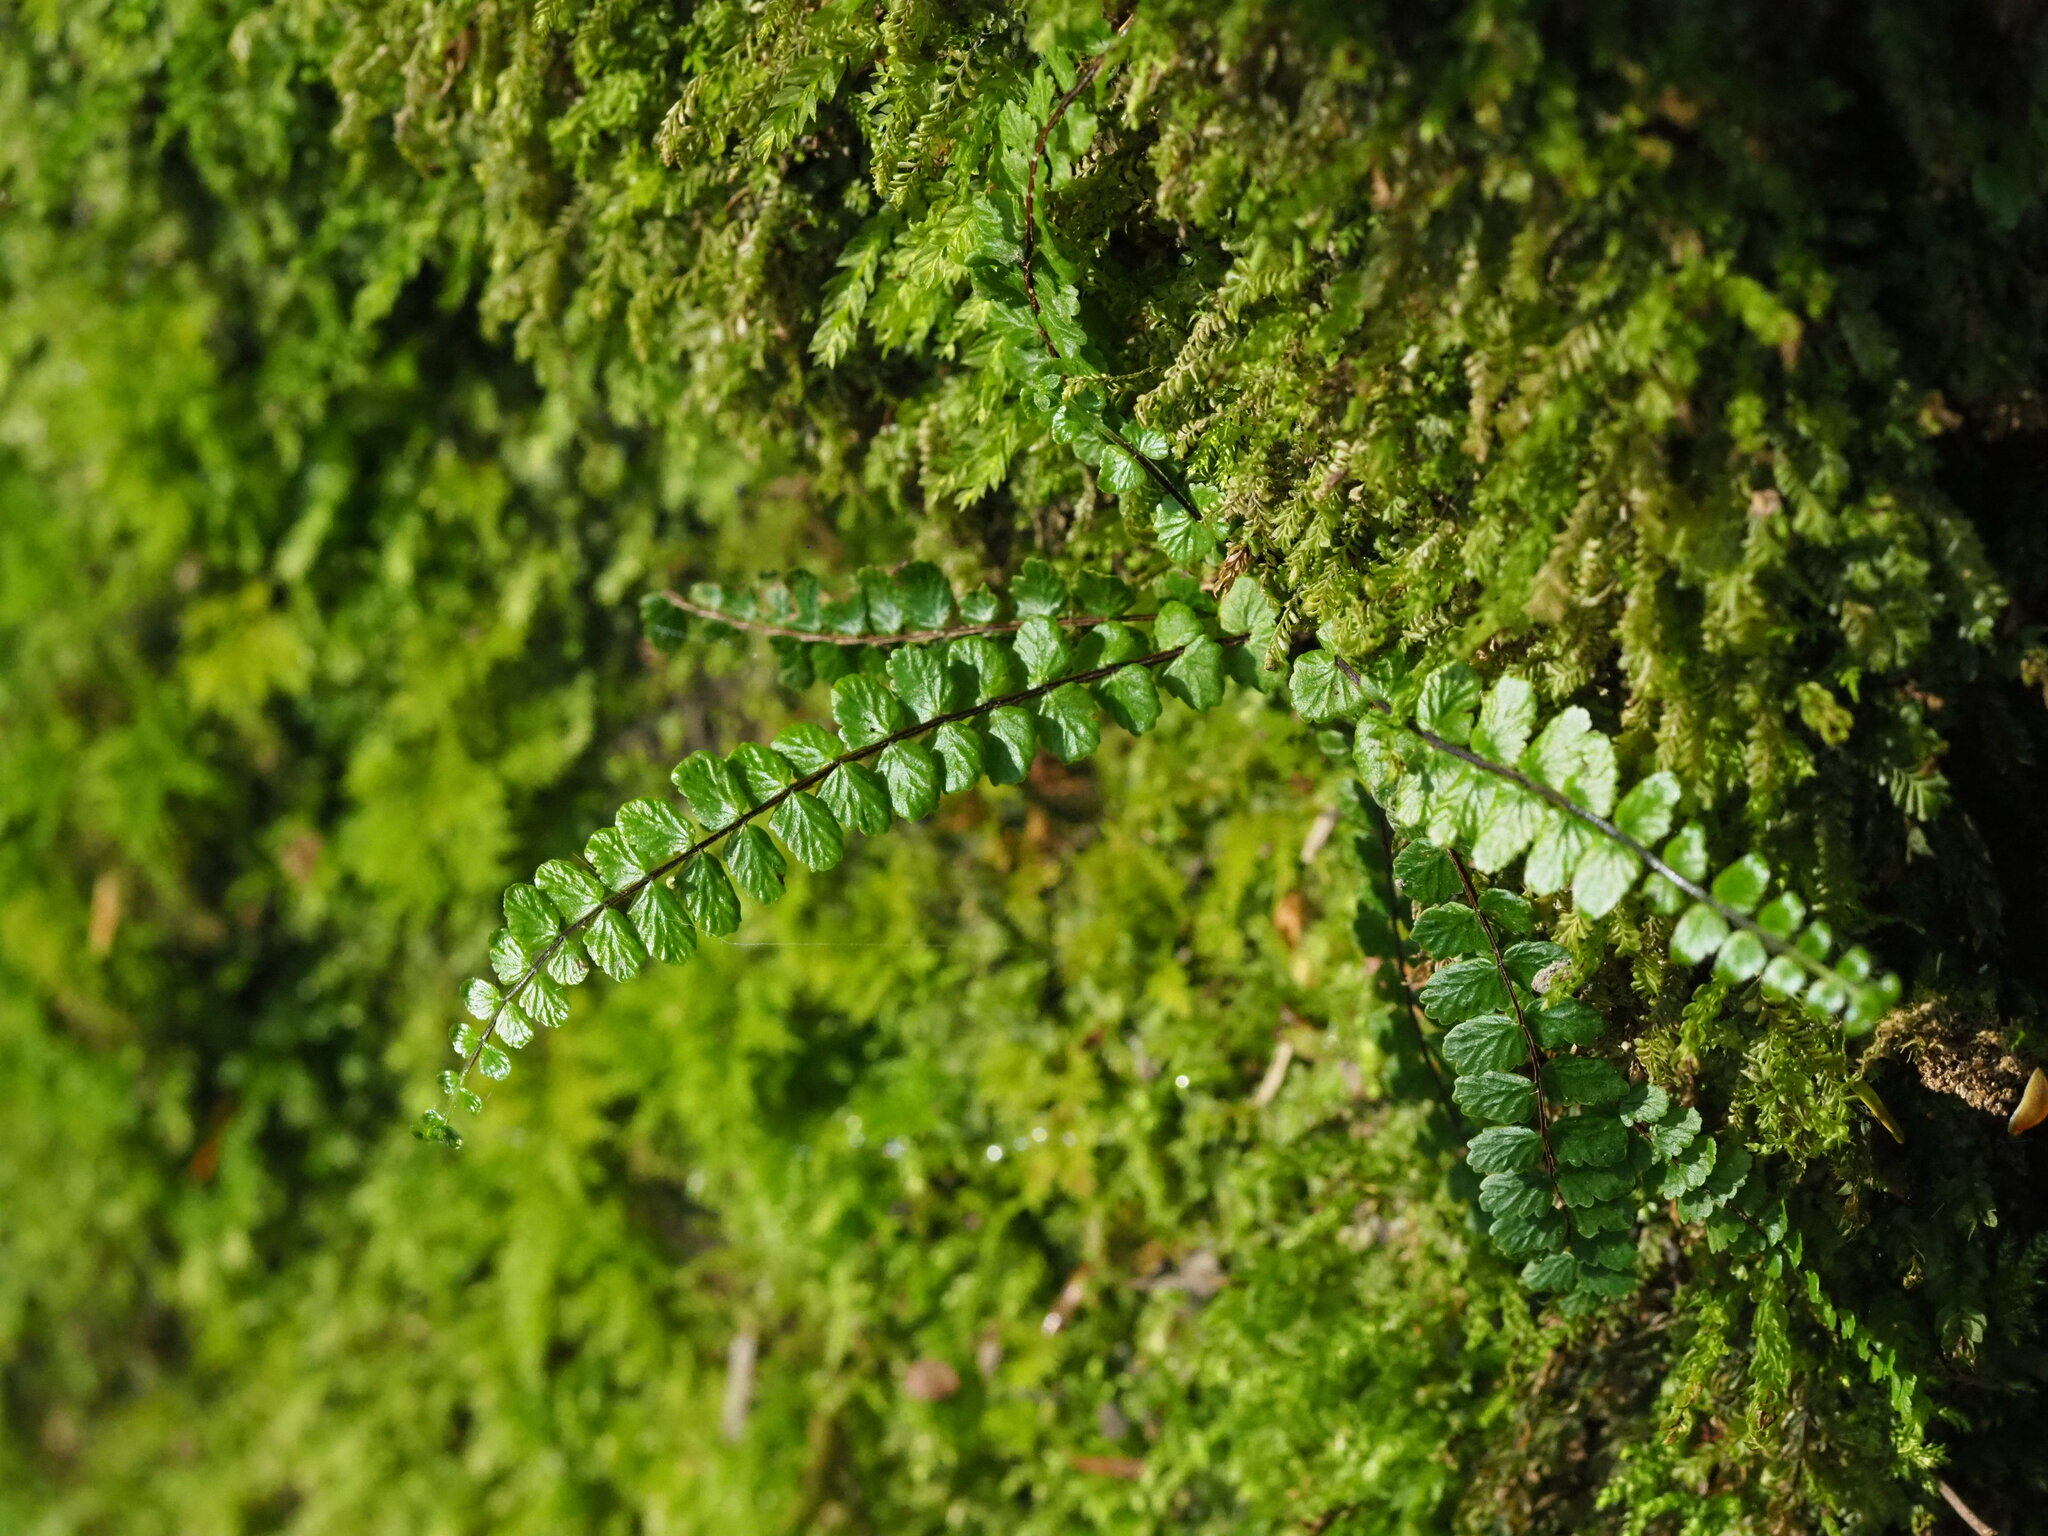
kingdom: Plantae
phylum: Tracheophyta
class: Polypodiopsida
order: Polypodiales
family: Aspleniaceae
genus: Asplenium
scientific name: Asplenium tripteropus
